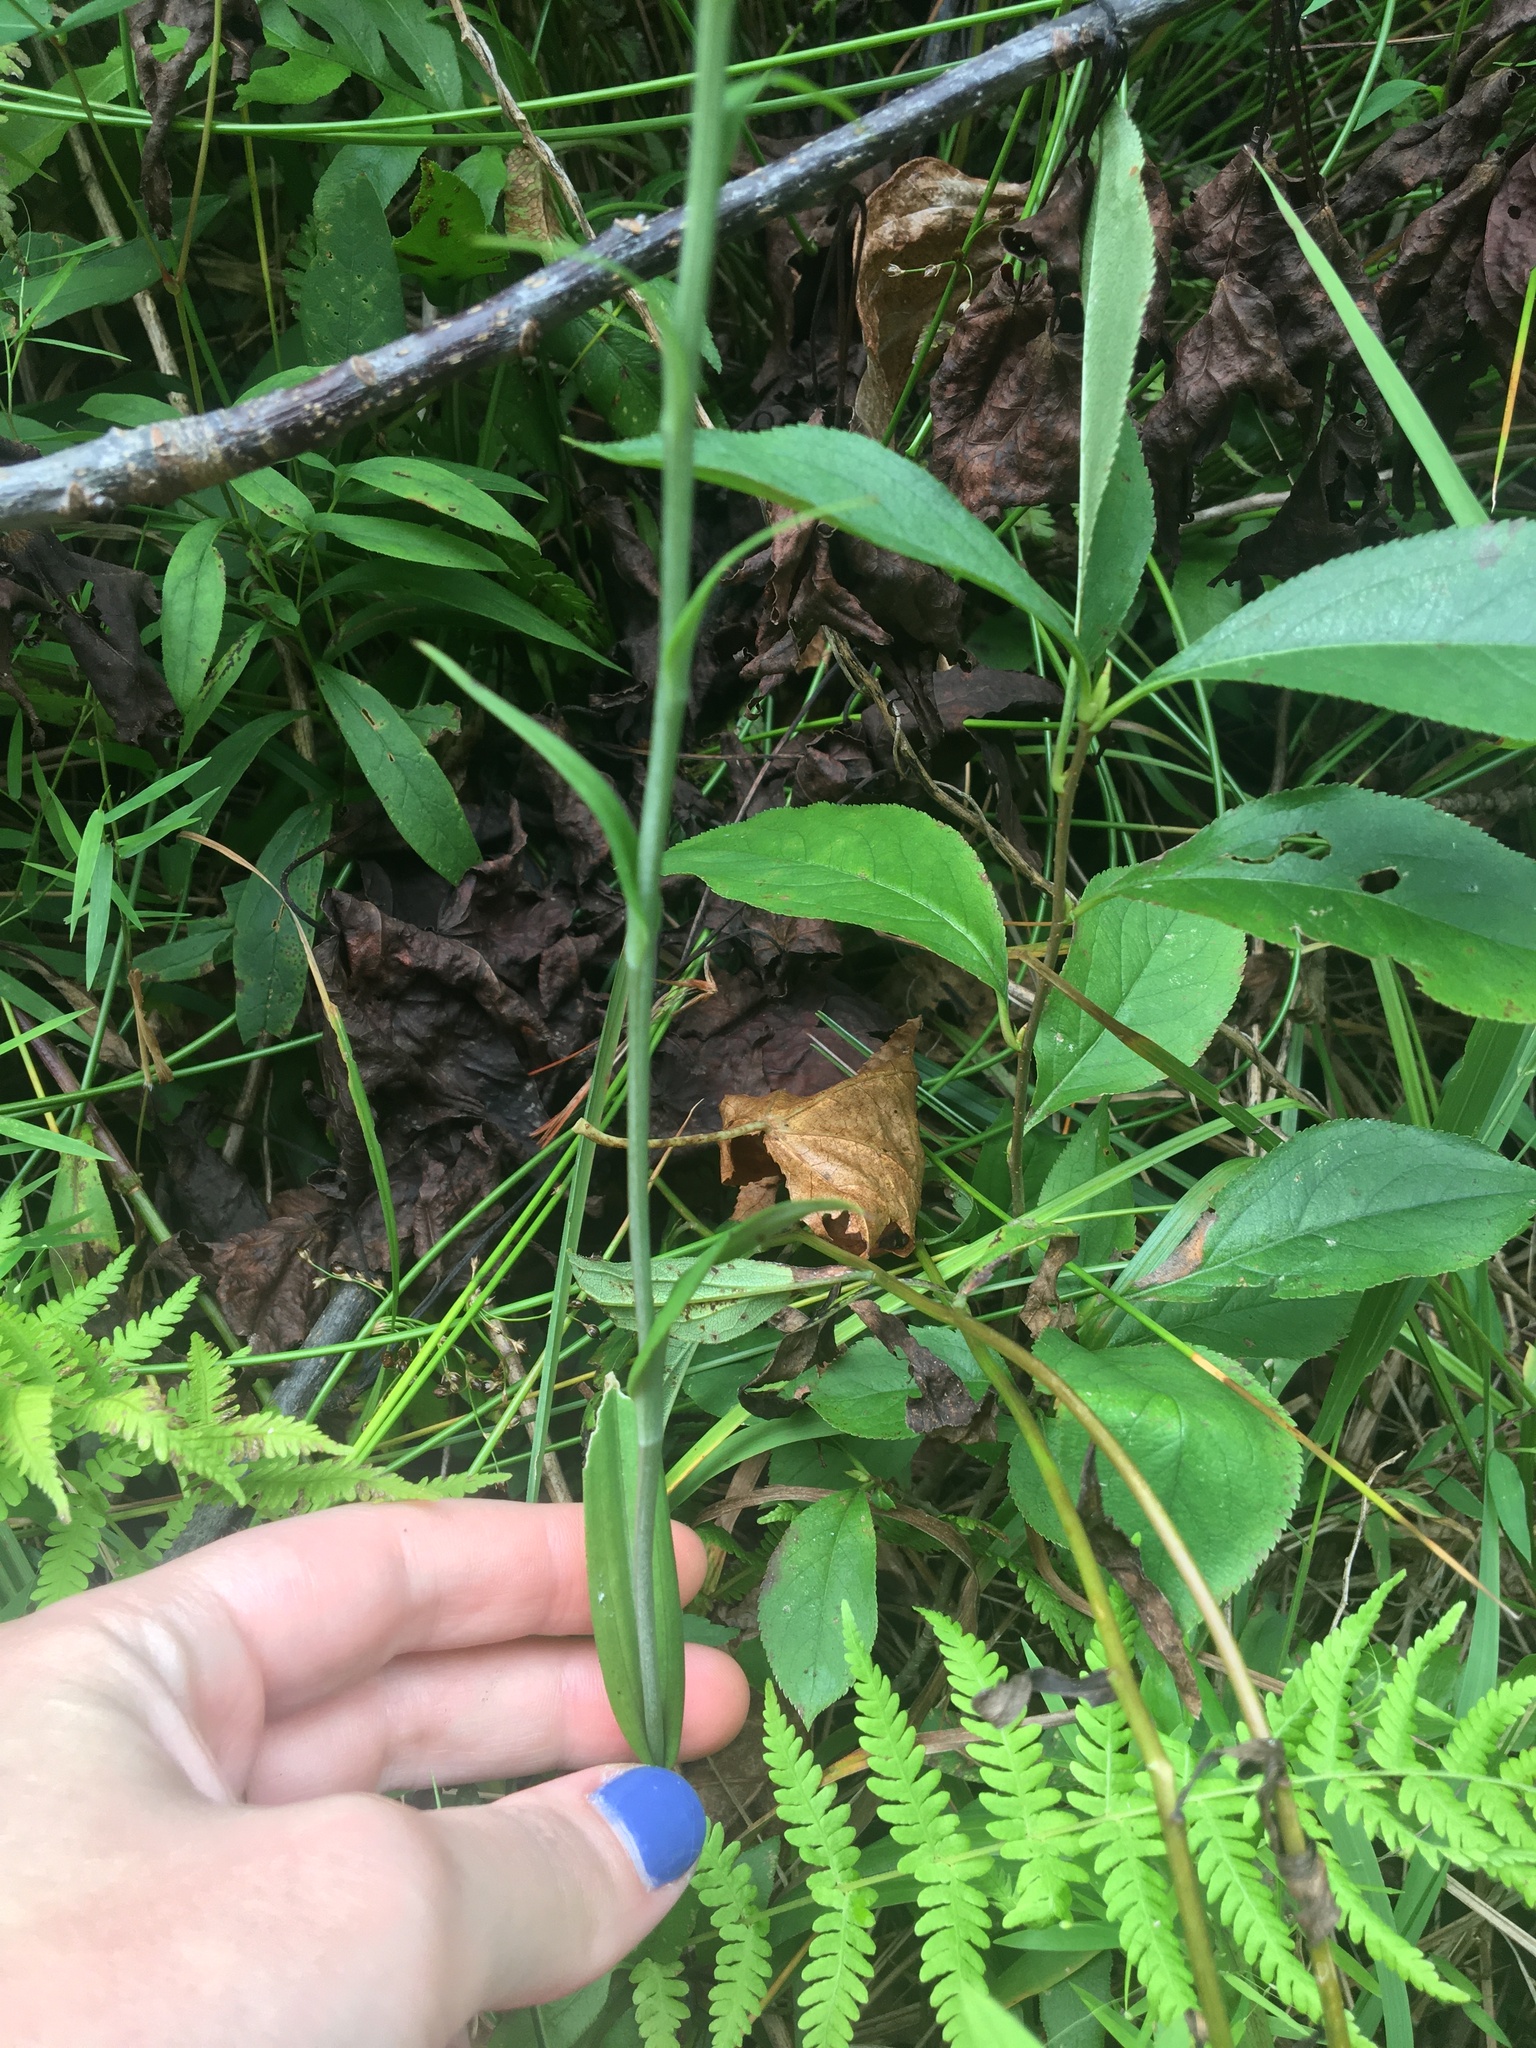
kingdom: Plantae
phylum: Tracheophyta
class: Liliopsida
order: Asparagales
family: Orchidaceae
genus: Platanthera
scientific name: Platanthera channellii
